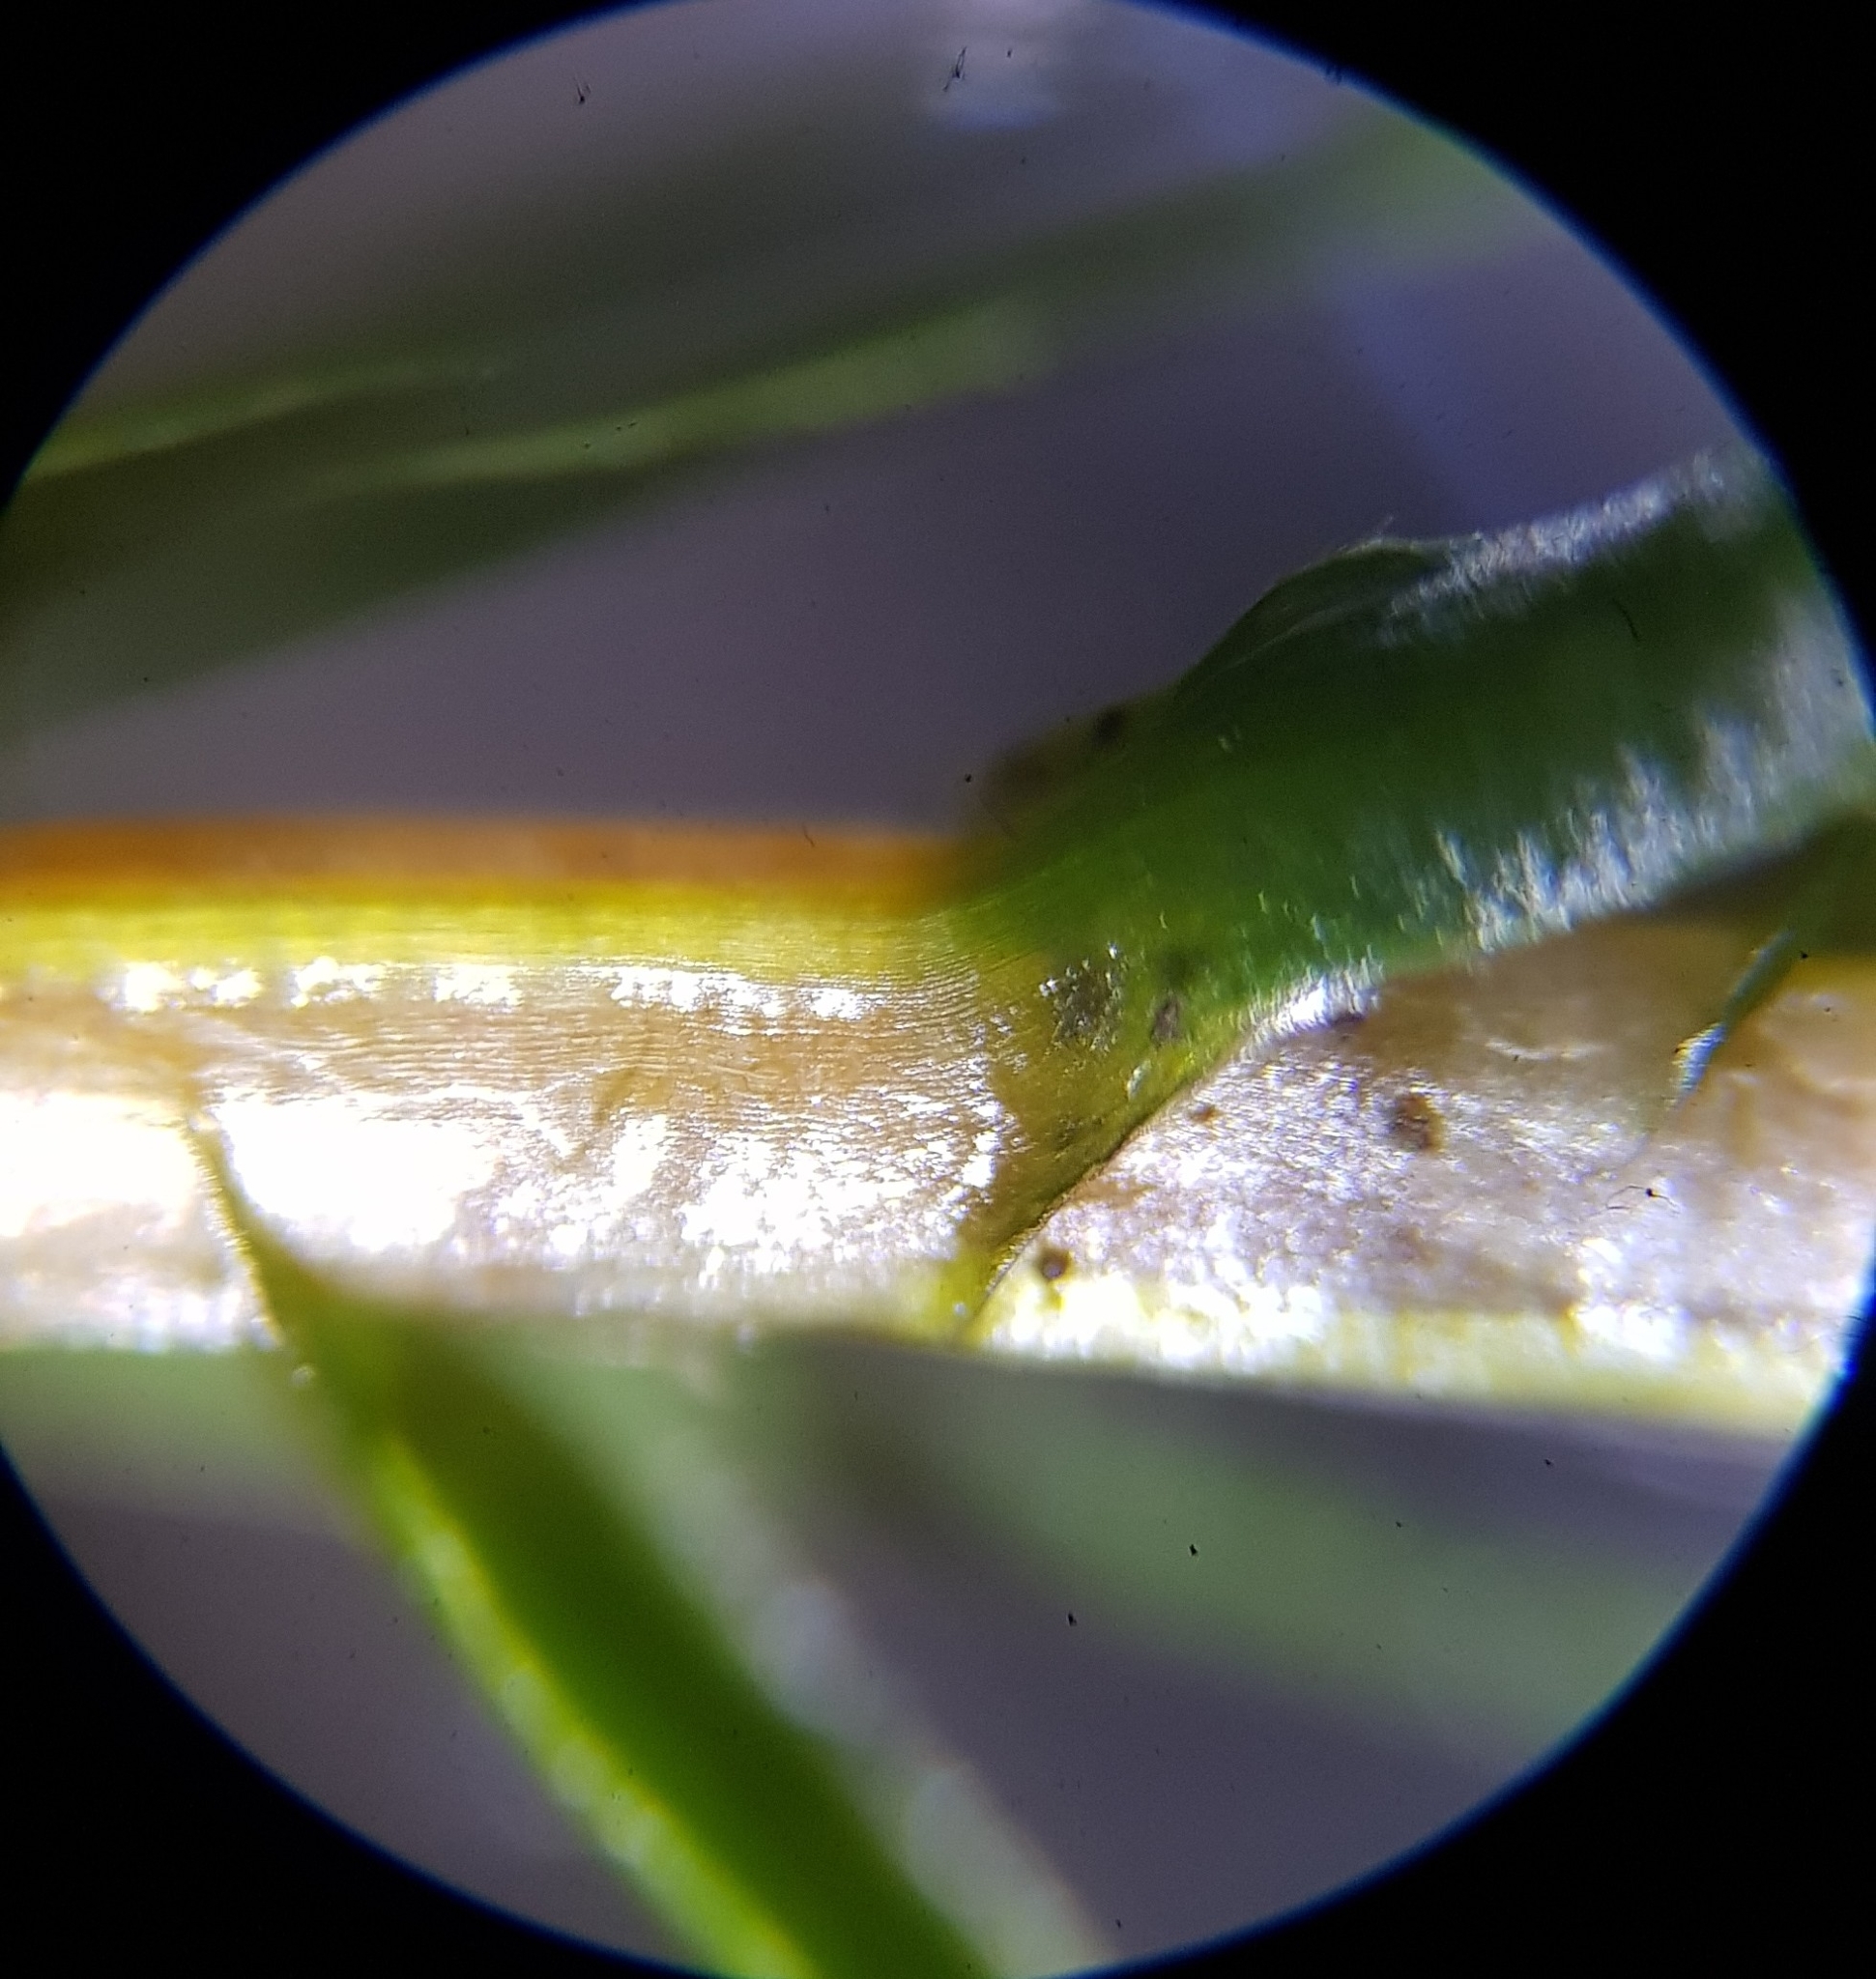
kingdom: Plantae
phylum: Bryophyta
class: Polytrichopsida
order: Polytrichales
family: Polytrichaceae
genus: Polytrichum
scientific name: Polytrichum commune
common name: Common haircap
